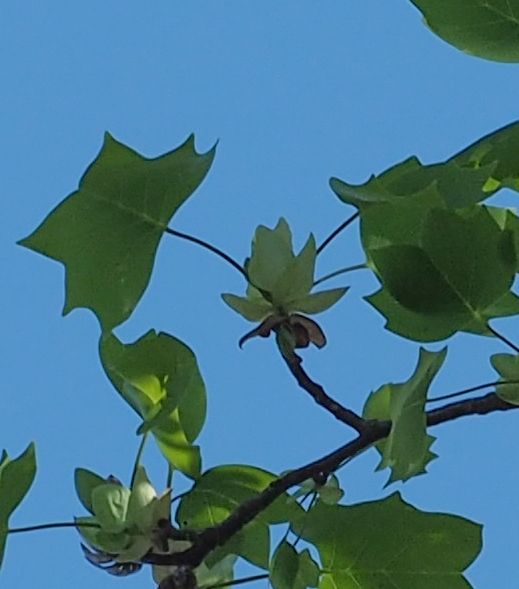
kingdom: Plantae
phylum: Tracheophyta
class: Magnoliopsida
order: Magnoliales
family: Magnoliaceae
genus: Liriodendron
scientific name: Liriodendron tulipifera
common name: Tulip tree
